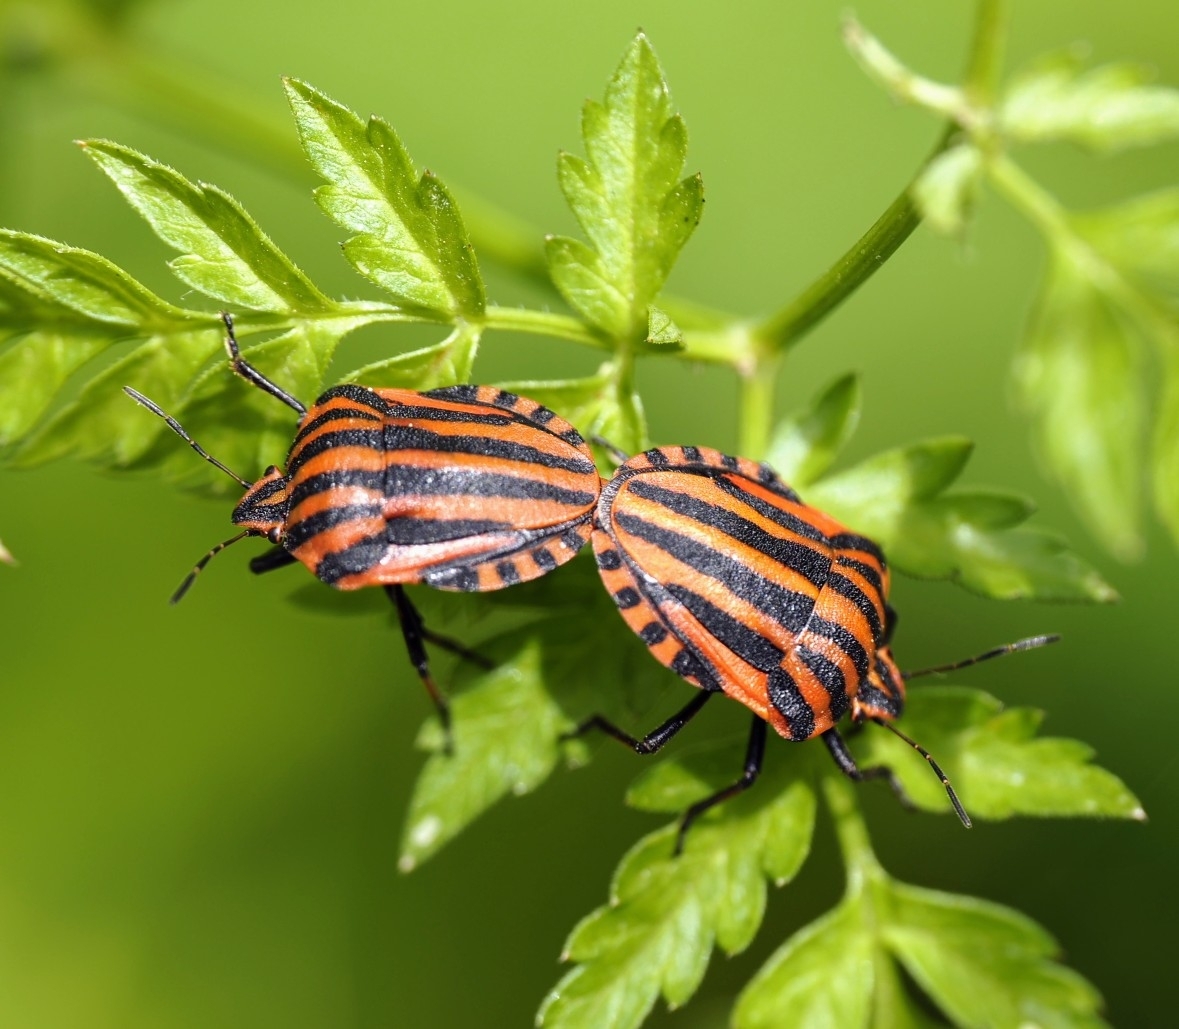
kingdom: Animalia
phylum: Arthropoda
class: Insecta
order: Hemiptera
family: Pentatomidae
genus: Graphosoma
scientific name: Graphosoma italicum
